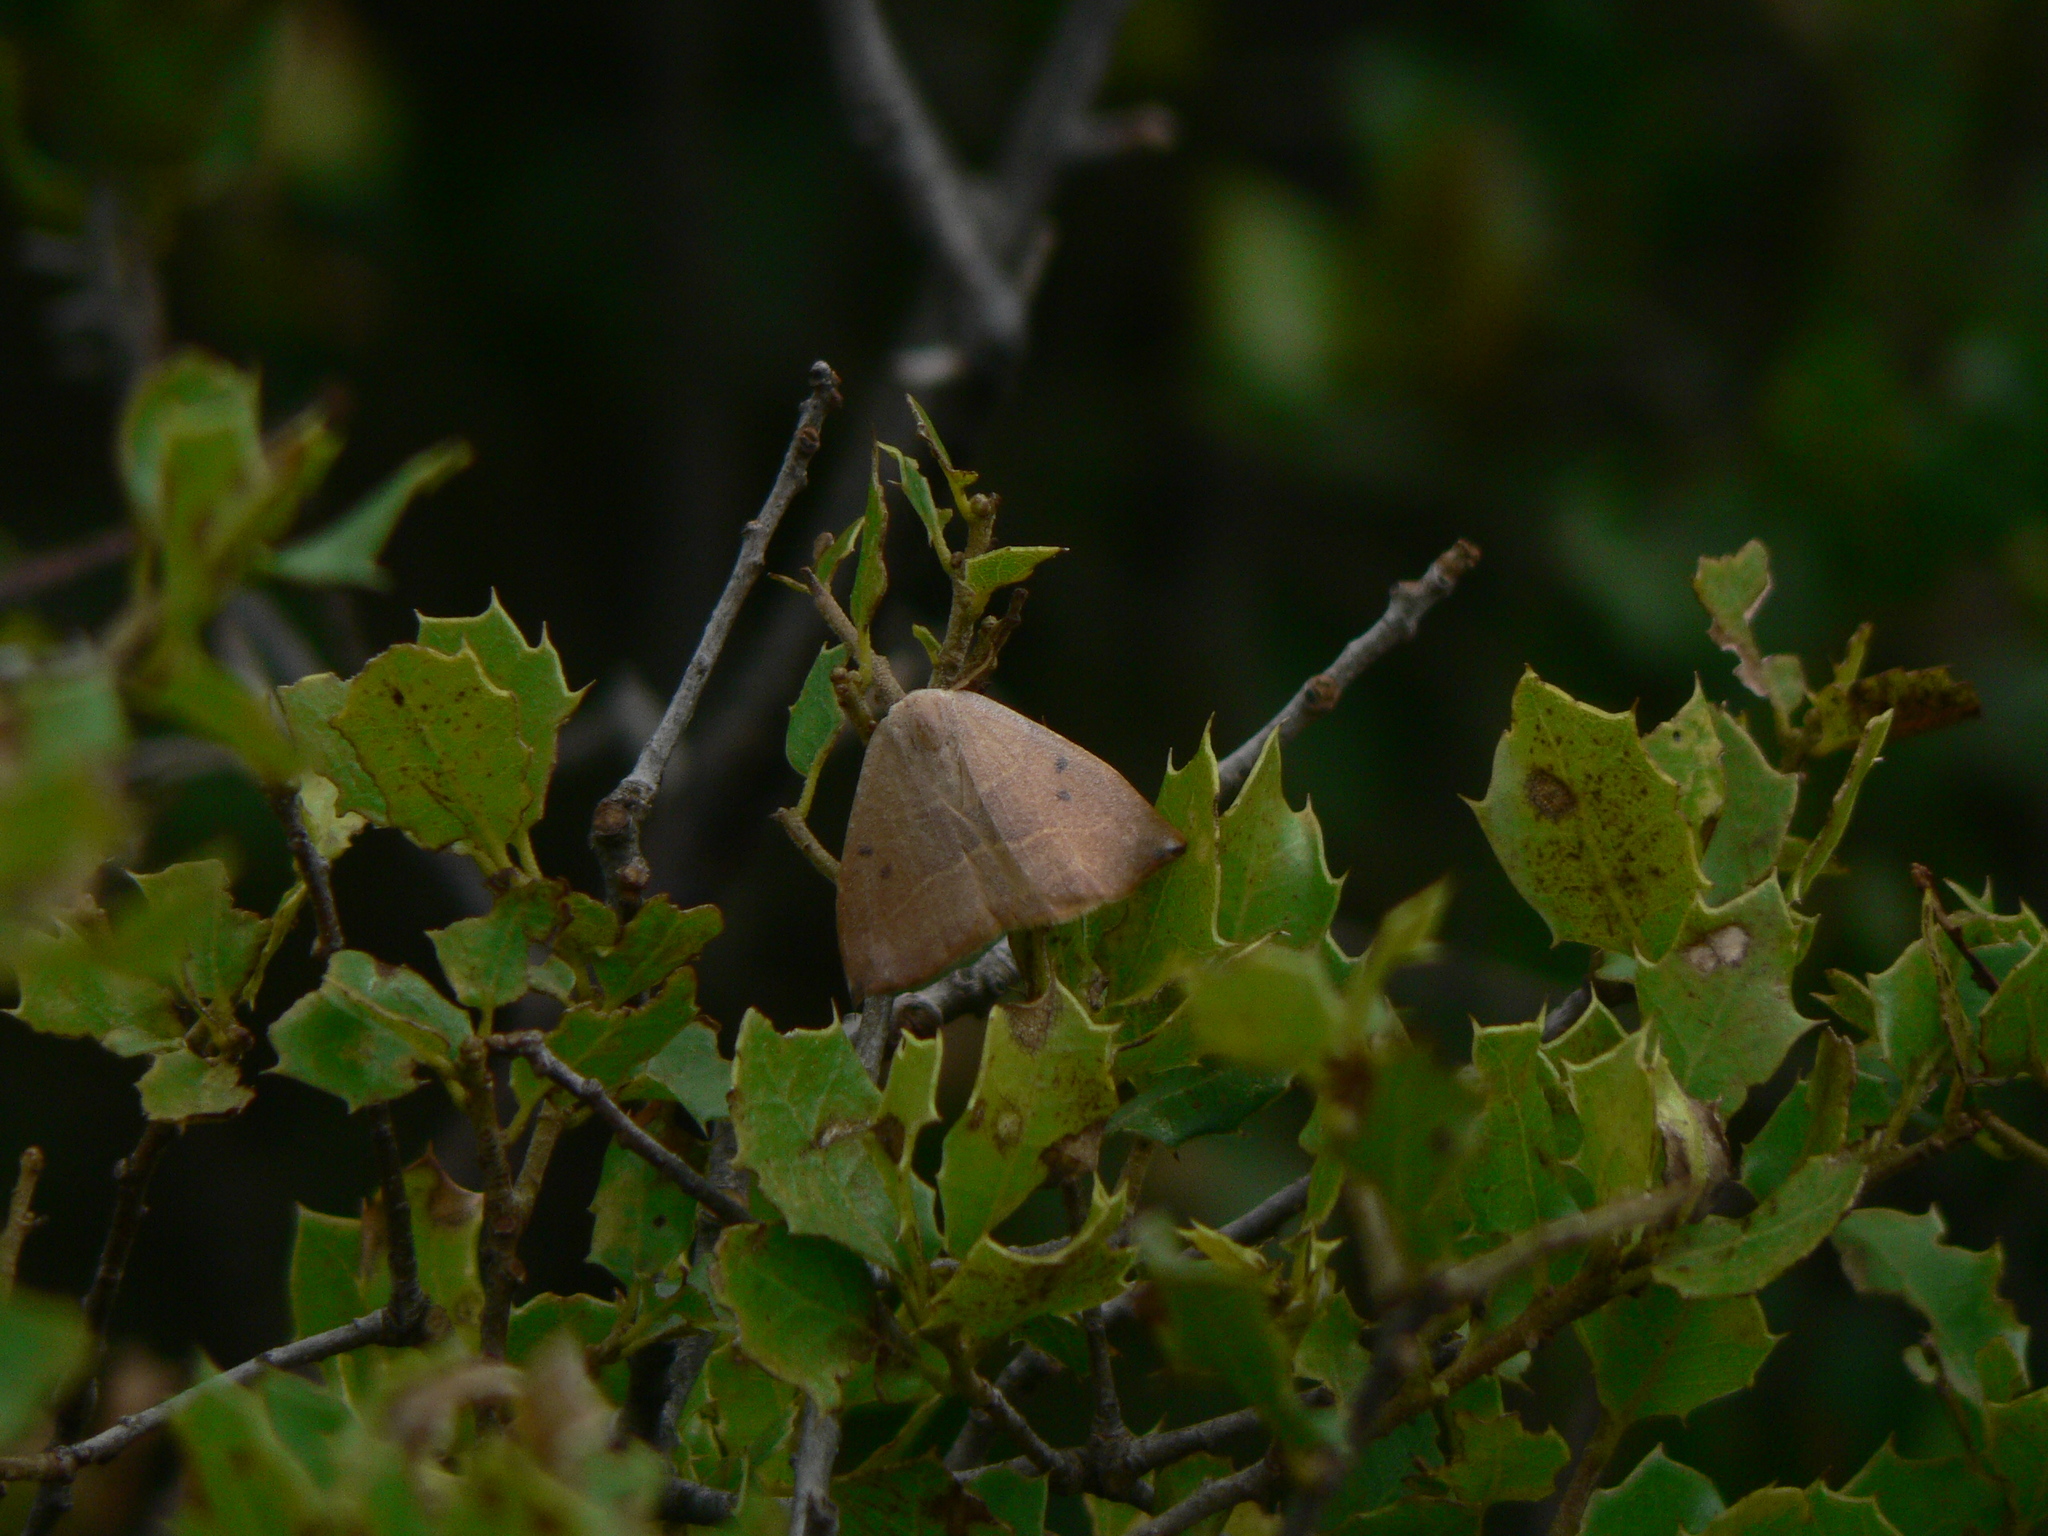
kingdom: Animalia
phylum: Arthropoda
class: Insecta
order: Lepidoptera
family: Drepanidae
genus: Watsonalla
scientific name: Watsonalla binaria
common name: Oak hook-tip
